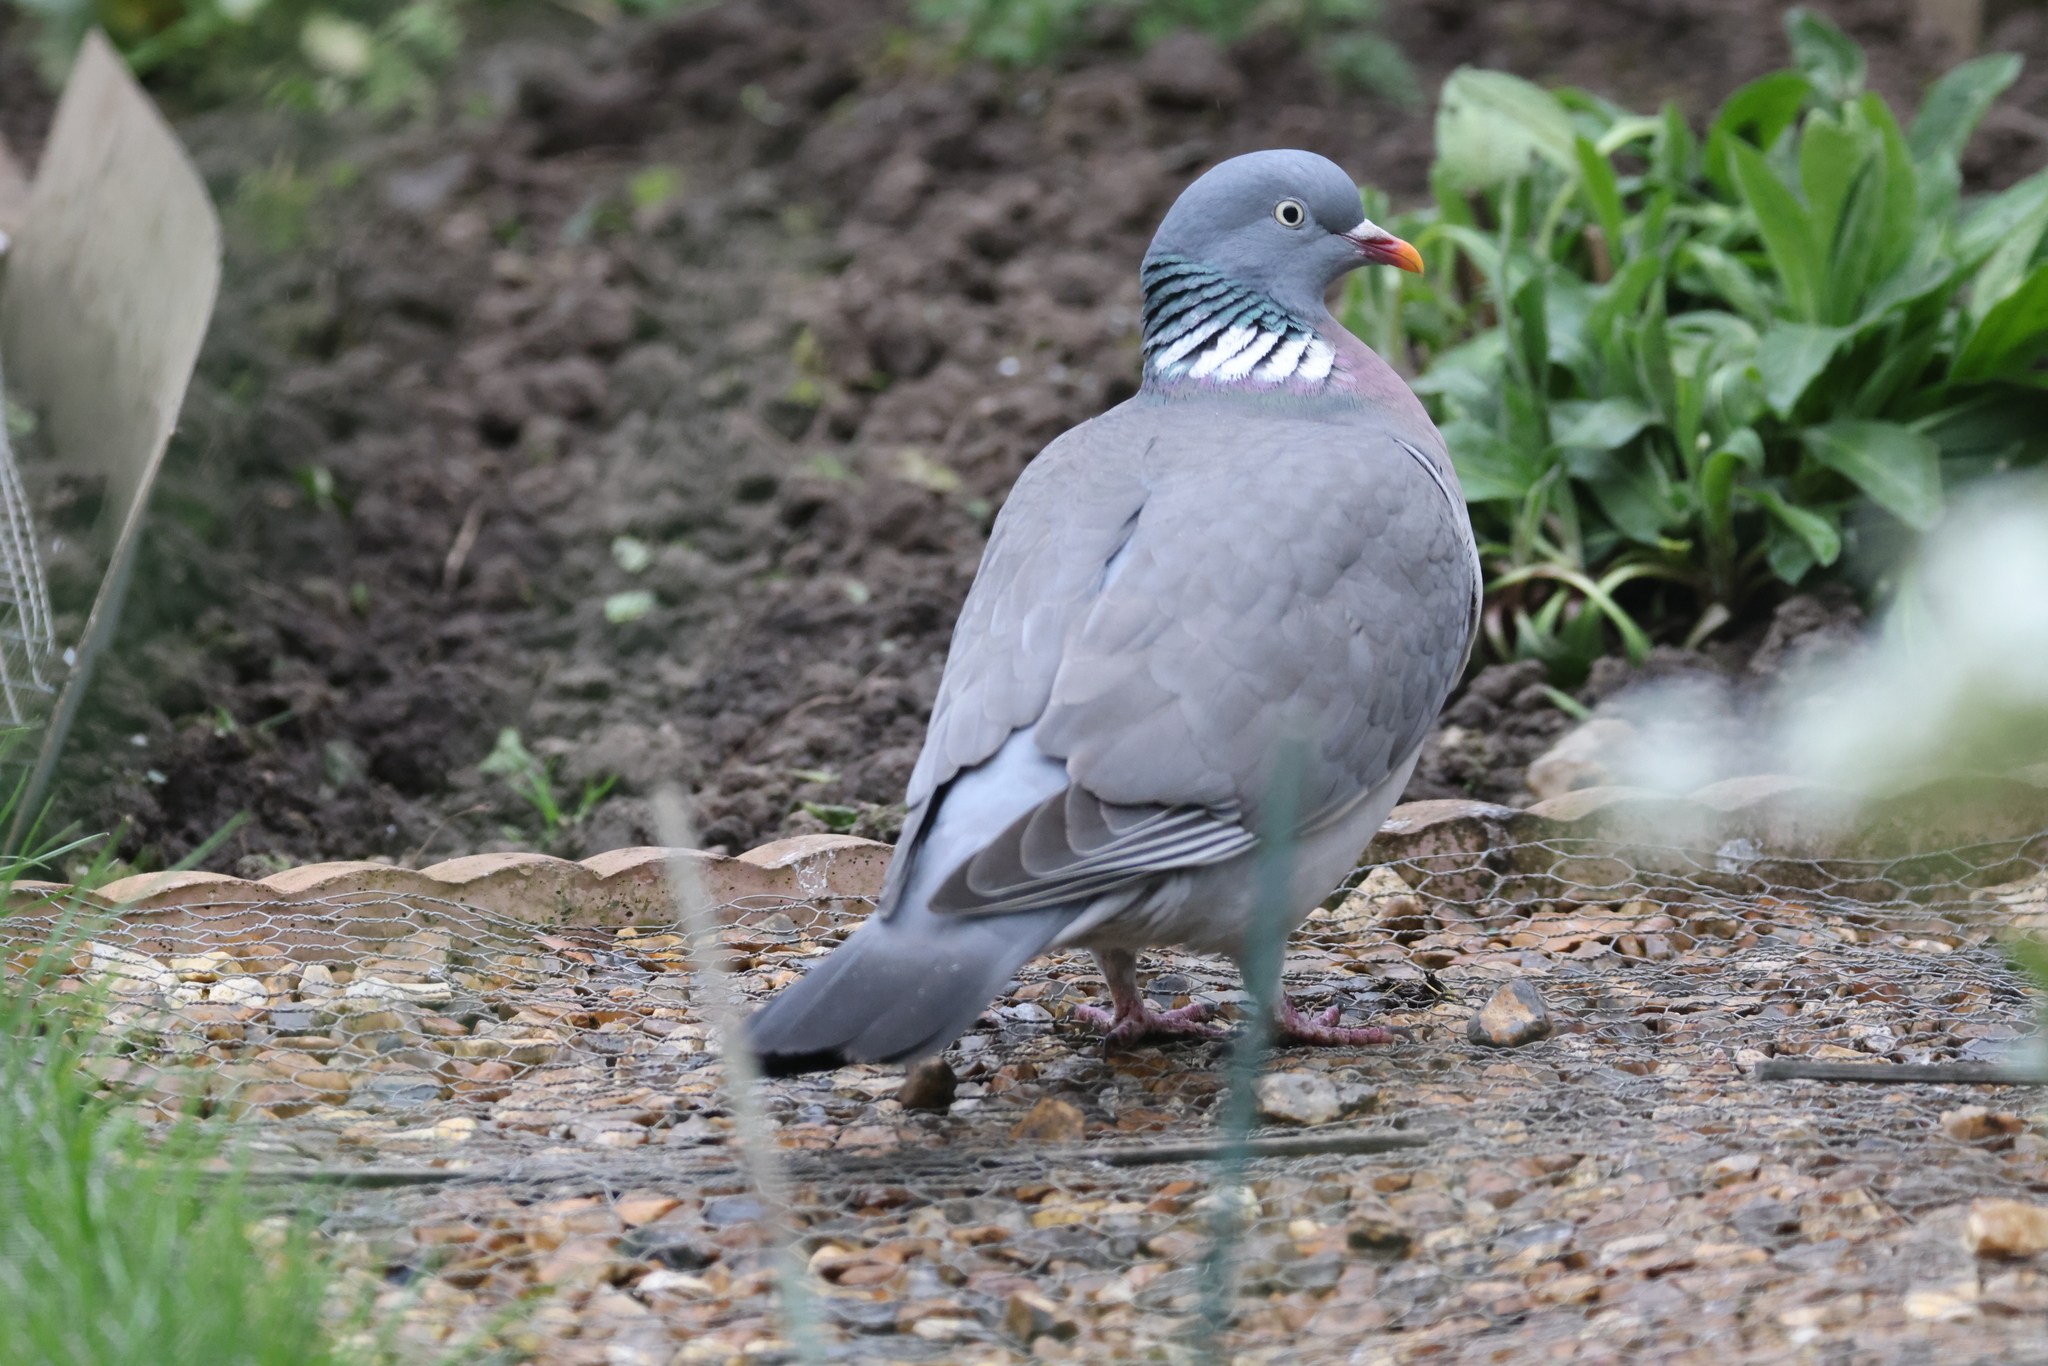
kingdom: Animalia
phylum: Chordata
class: Aves
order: Columbiformes
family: Columbidae
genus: Columba
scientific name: Columba palumbus
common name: Common wood pigeon
